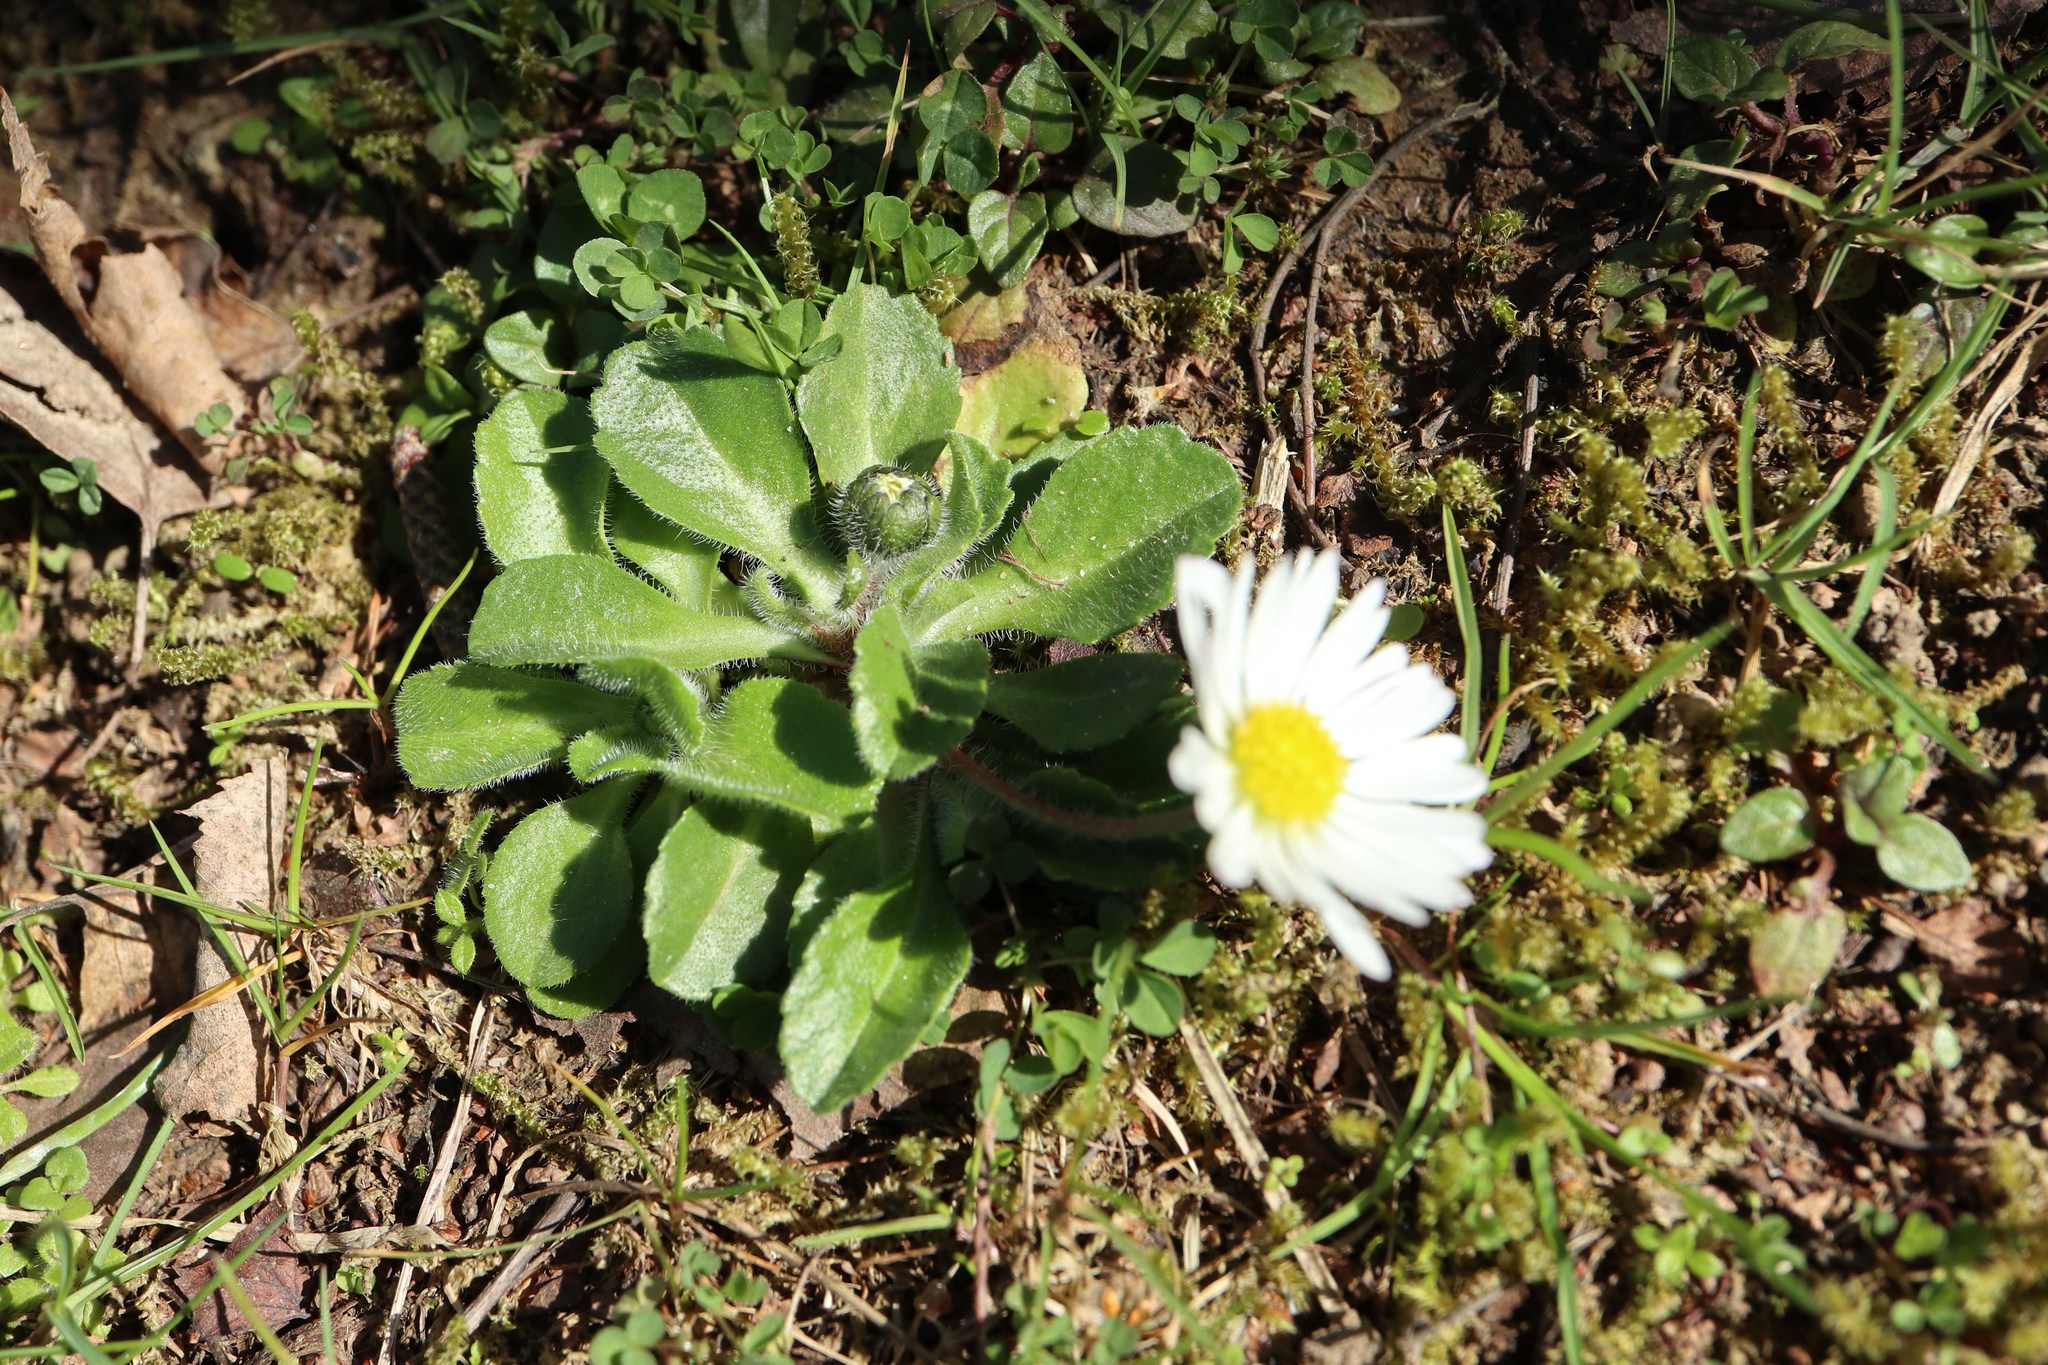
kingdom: Plantae
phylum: Tracheophyta
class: Magnoliopsida
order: Asterales
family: Asteraceae
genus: Bellis
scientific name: Bellis perennis
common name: Lawndaisy
